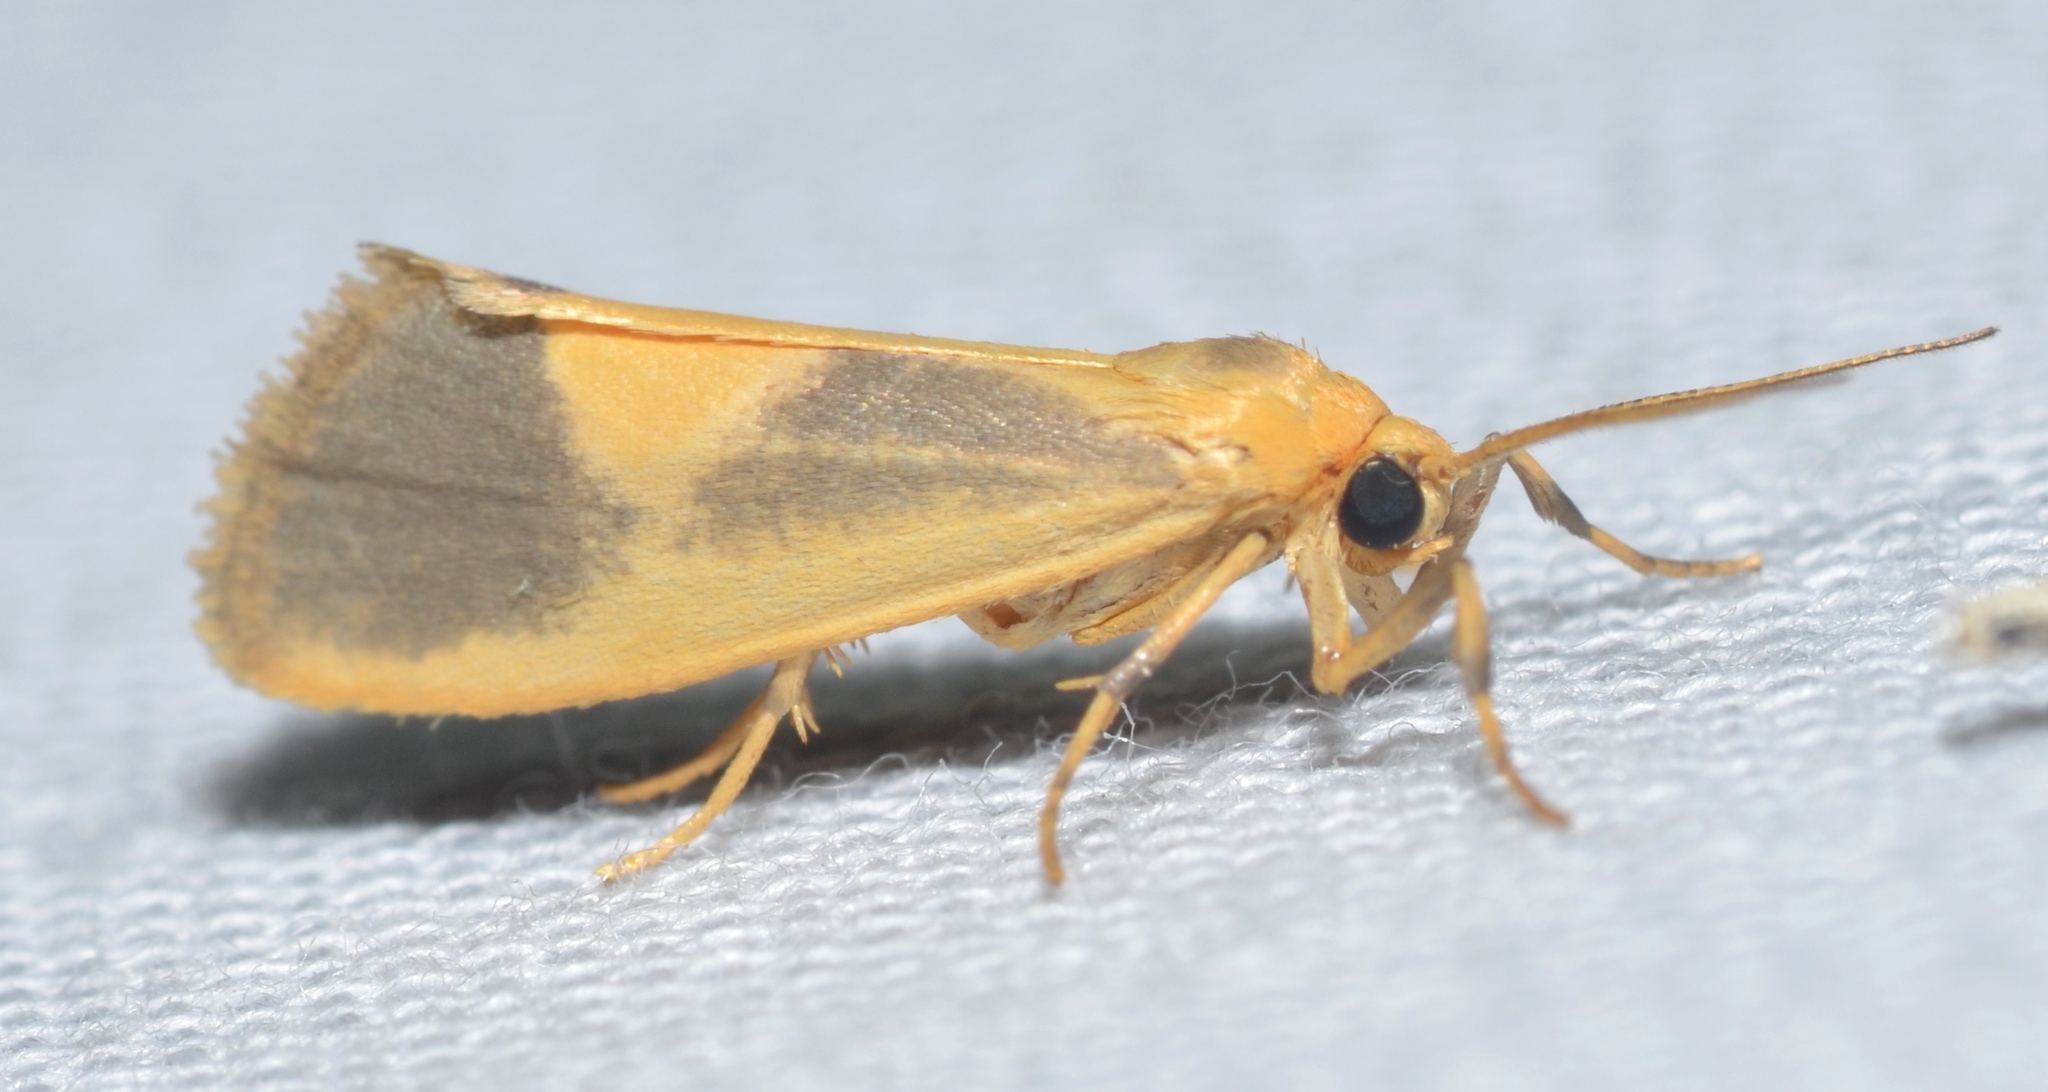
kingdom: Animalia
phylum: Arthropoda
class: Insecta
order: Lepidoptera
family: Erebidae
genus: Cisthene
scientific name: Cisthene plumbea
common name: Lead colored lichen moth
